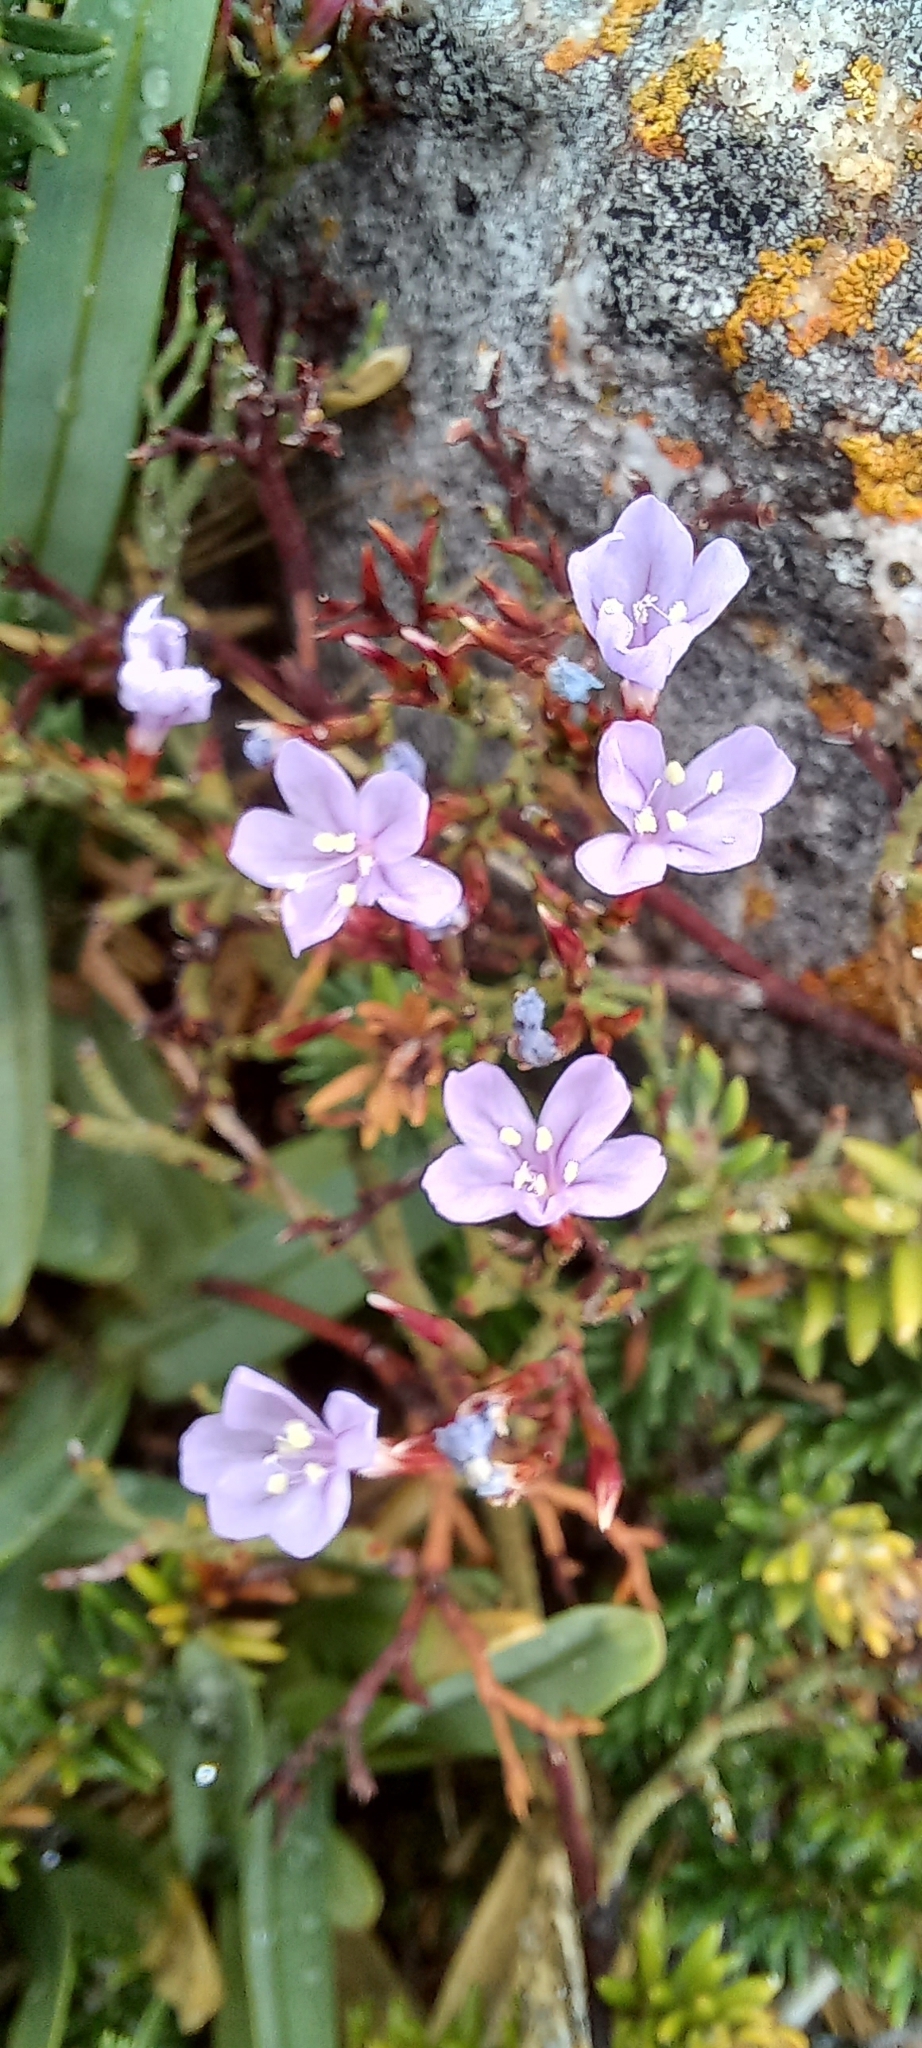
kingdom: Plantae
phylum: Tracheophyta
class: Magnoliopsida
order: Caryophyllales
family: Plumbaginaceae
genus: Limonium
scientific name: Limonium scabrum
